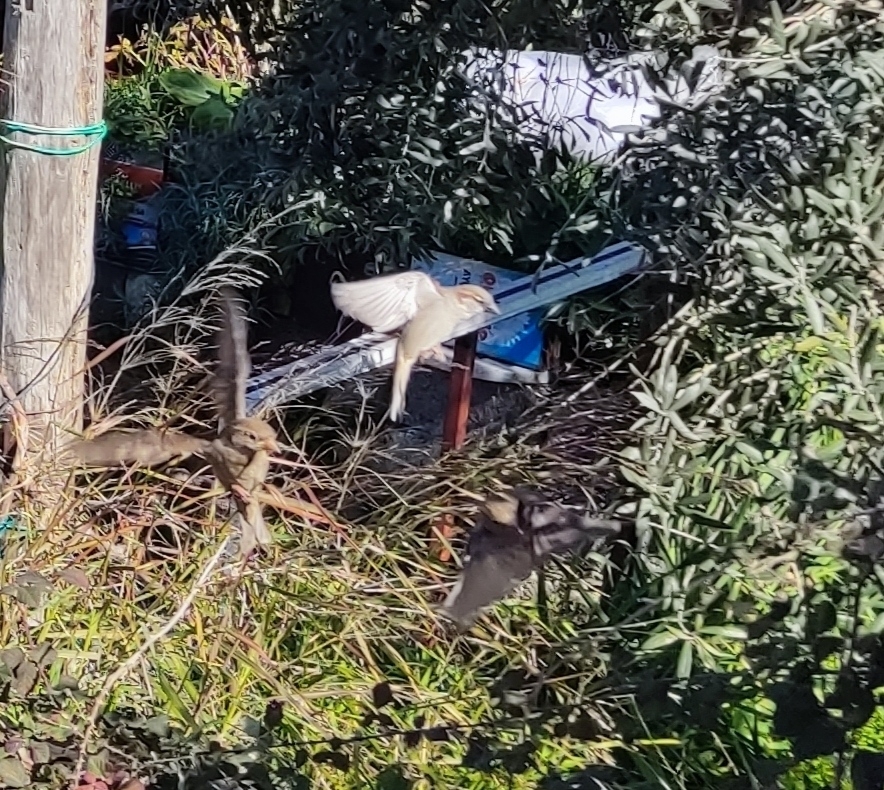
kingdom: Animalia
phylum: Chordata
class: Aves
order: Passeriformes
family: Passeridae
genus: Passer
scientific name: Passer domesticus
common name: House sparrow
